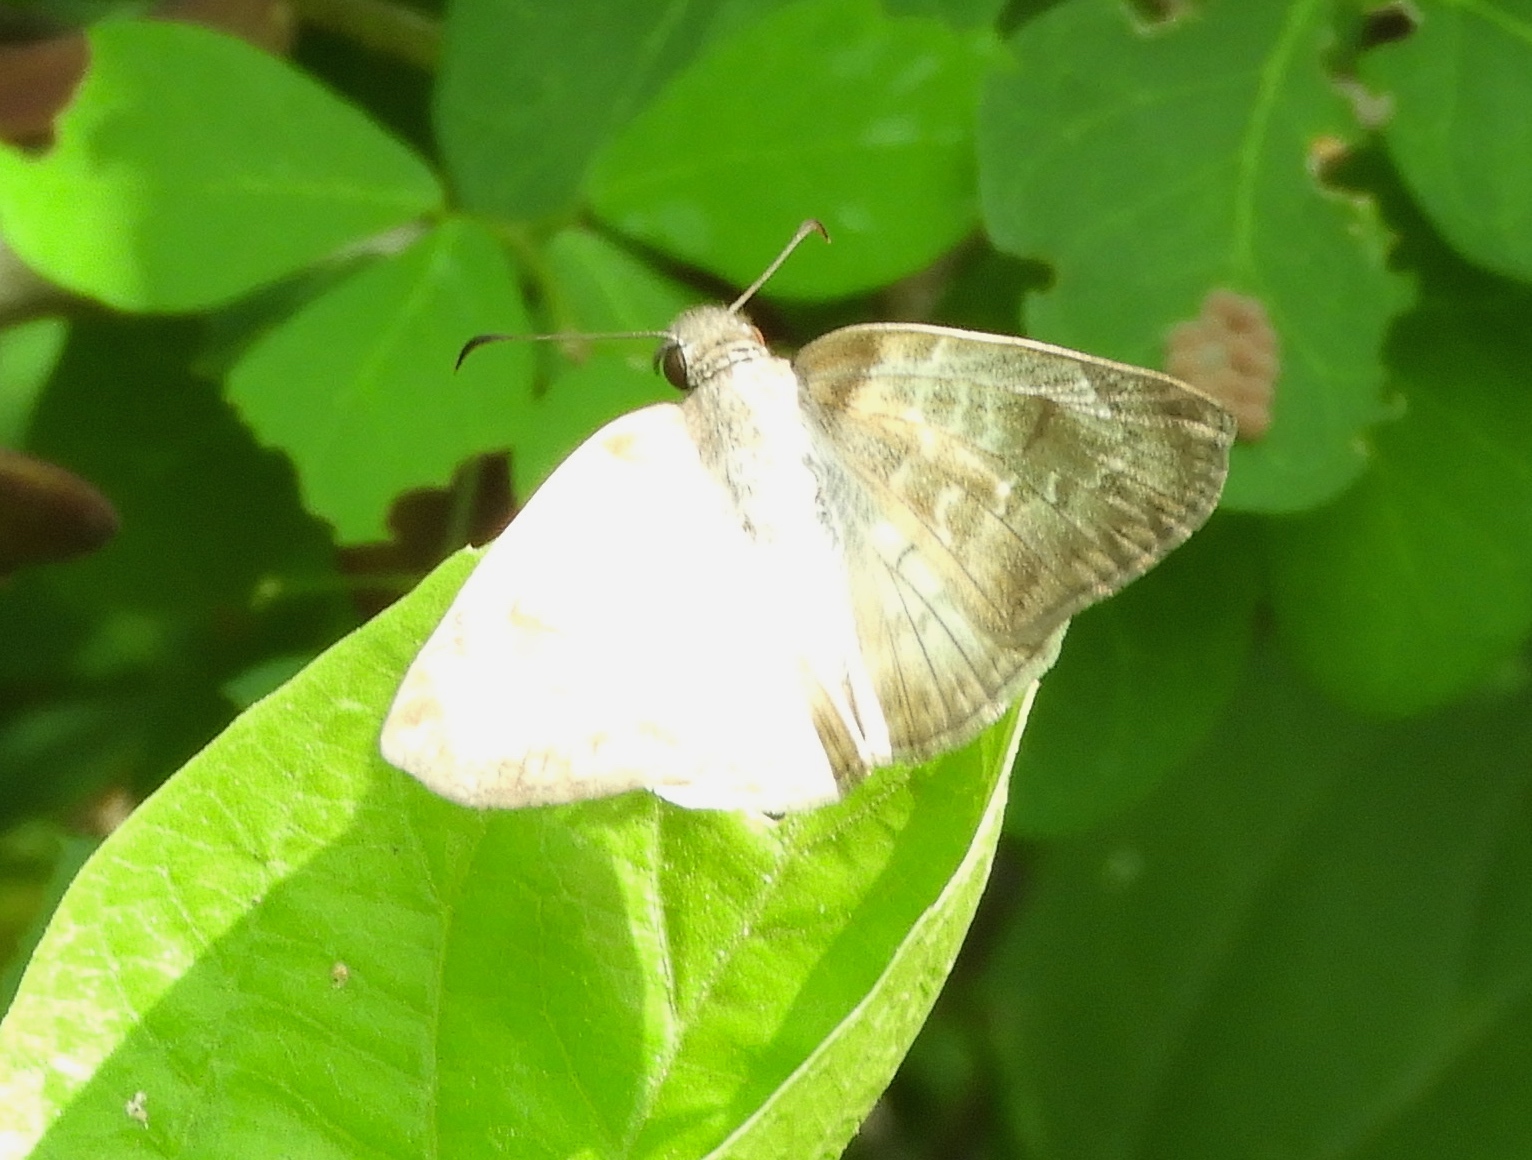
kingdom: Animalia
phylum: Arthropoda
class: Insecta
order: Lepidoptera
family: Hesperiidae
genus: Mylon
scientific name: Mylon pelopidas
